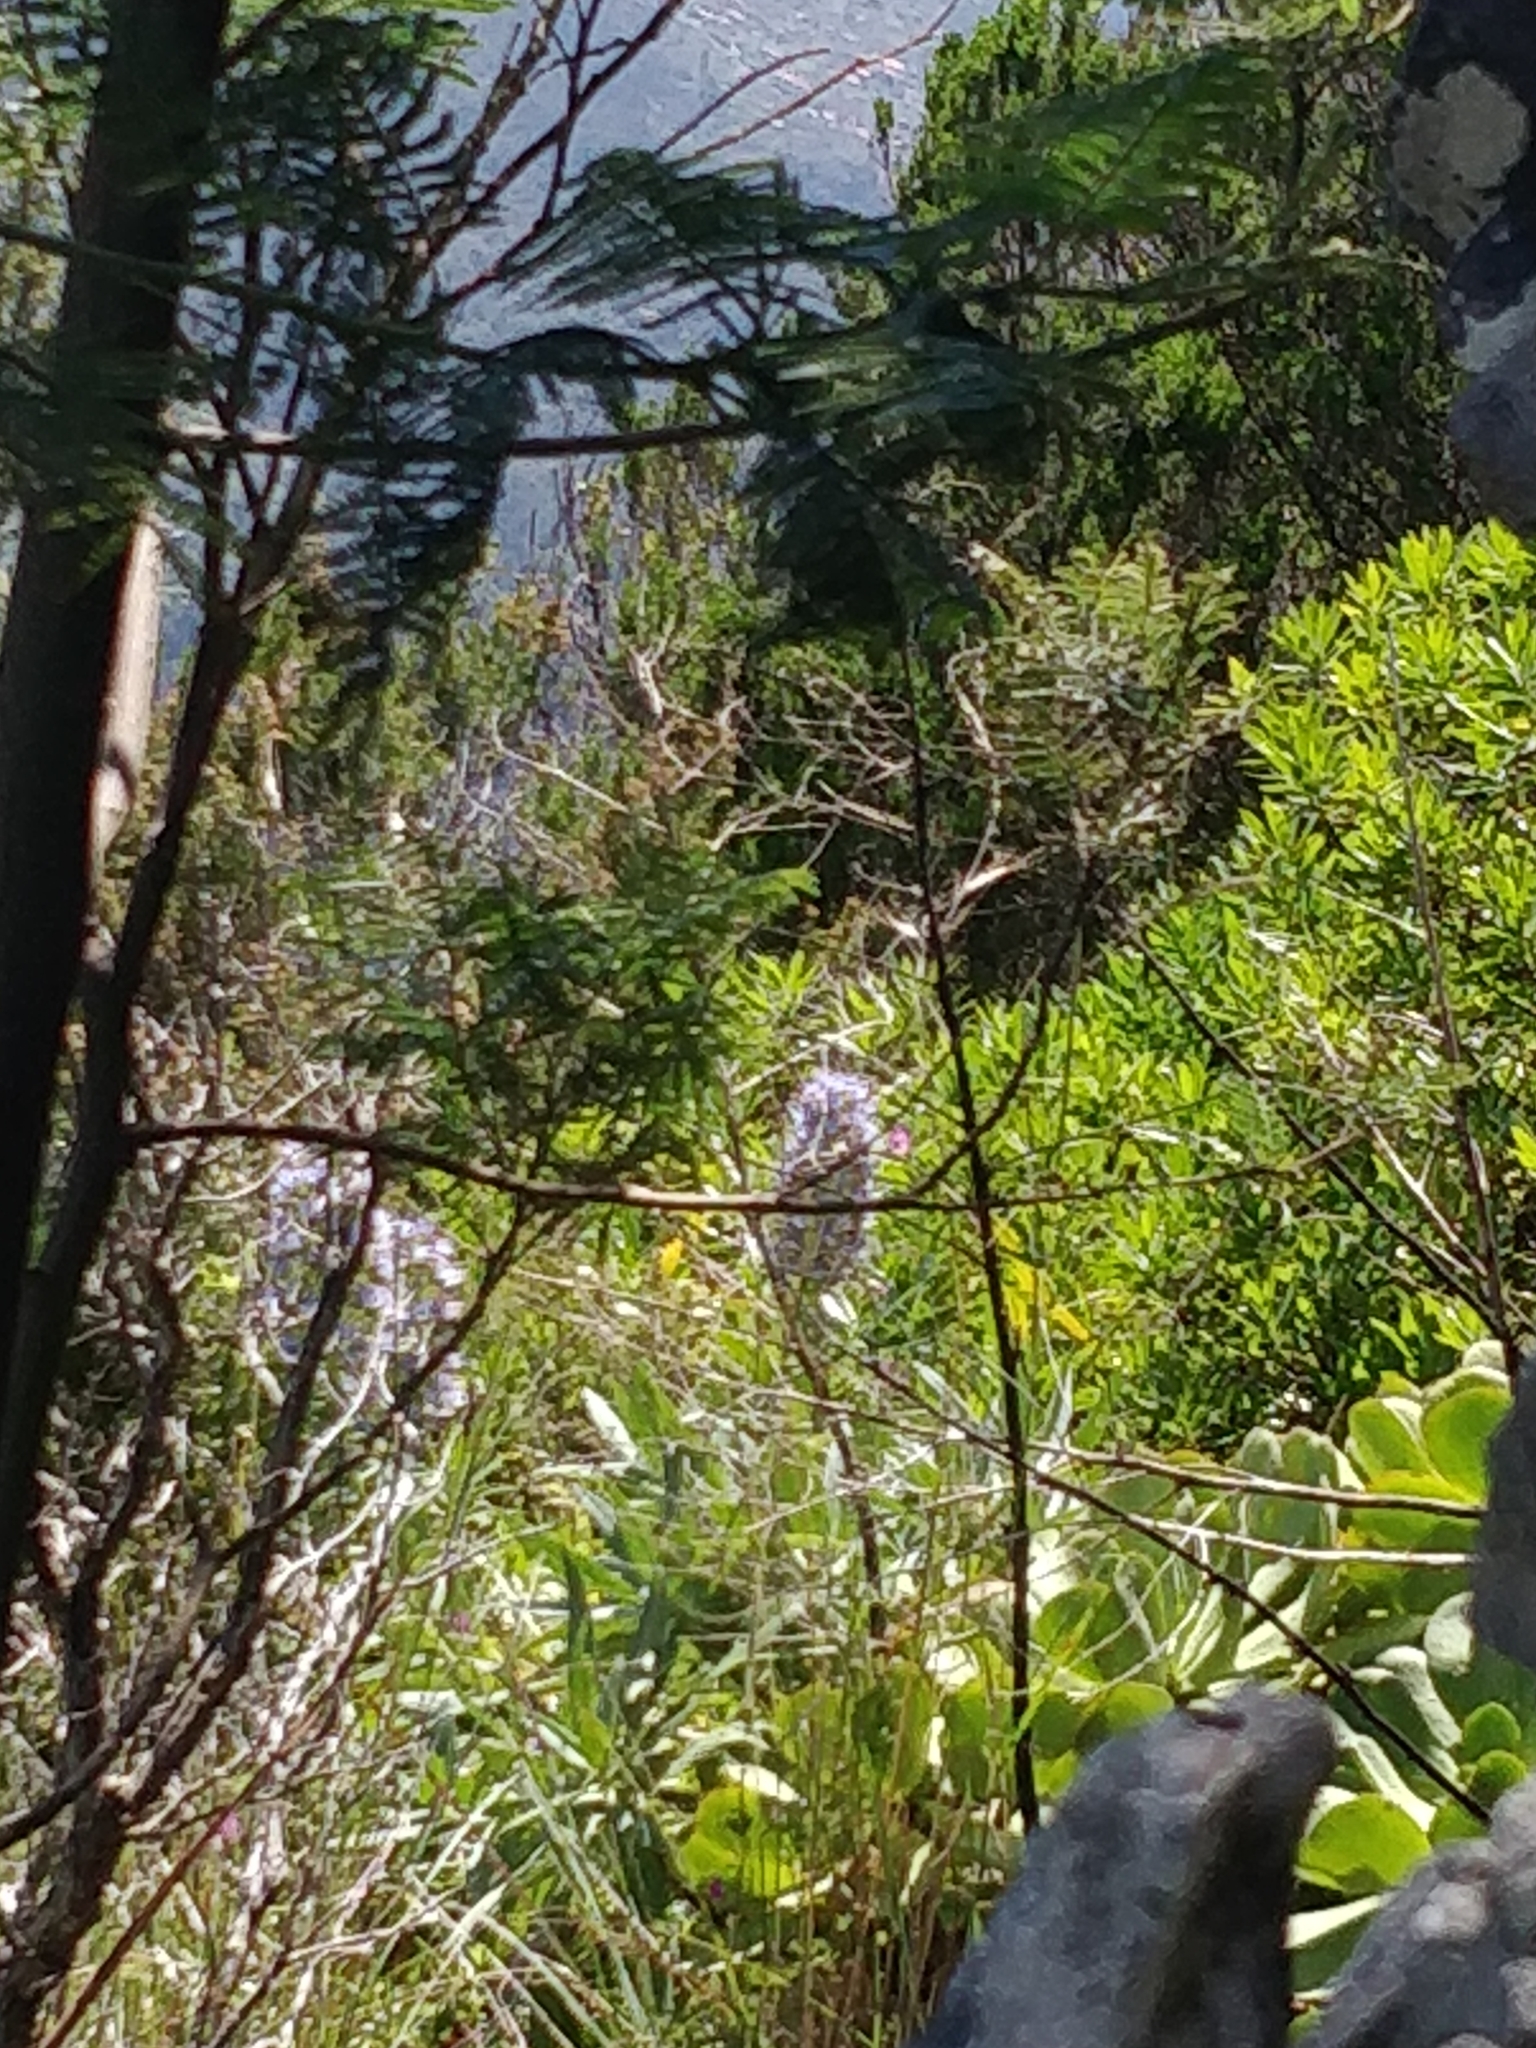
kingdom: Plantae
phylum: Tracheophyta
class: Magnoliopsida
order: Boraginales
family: Boraginaceae
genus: Echium
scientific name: Echium nervosum
